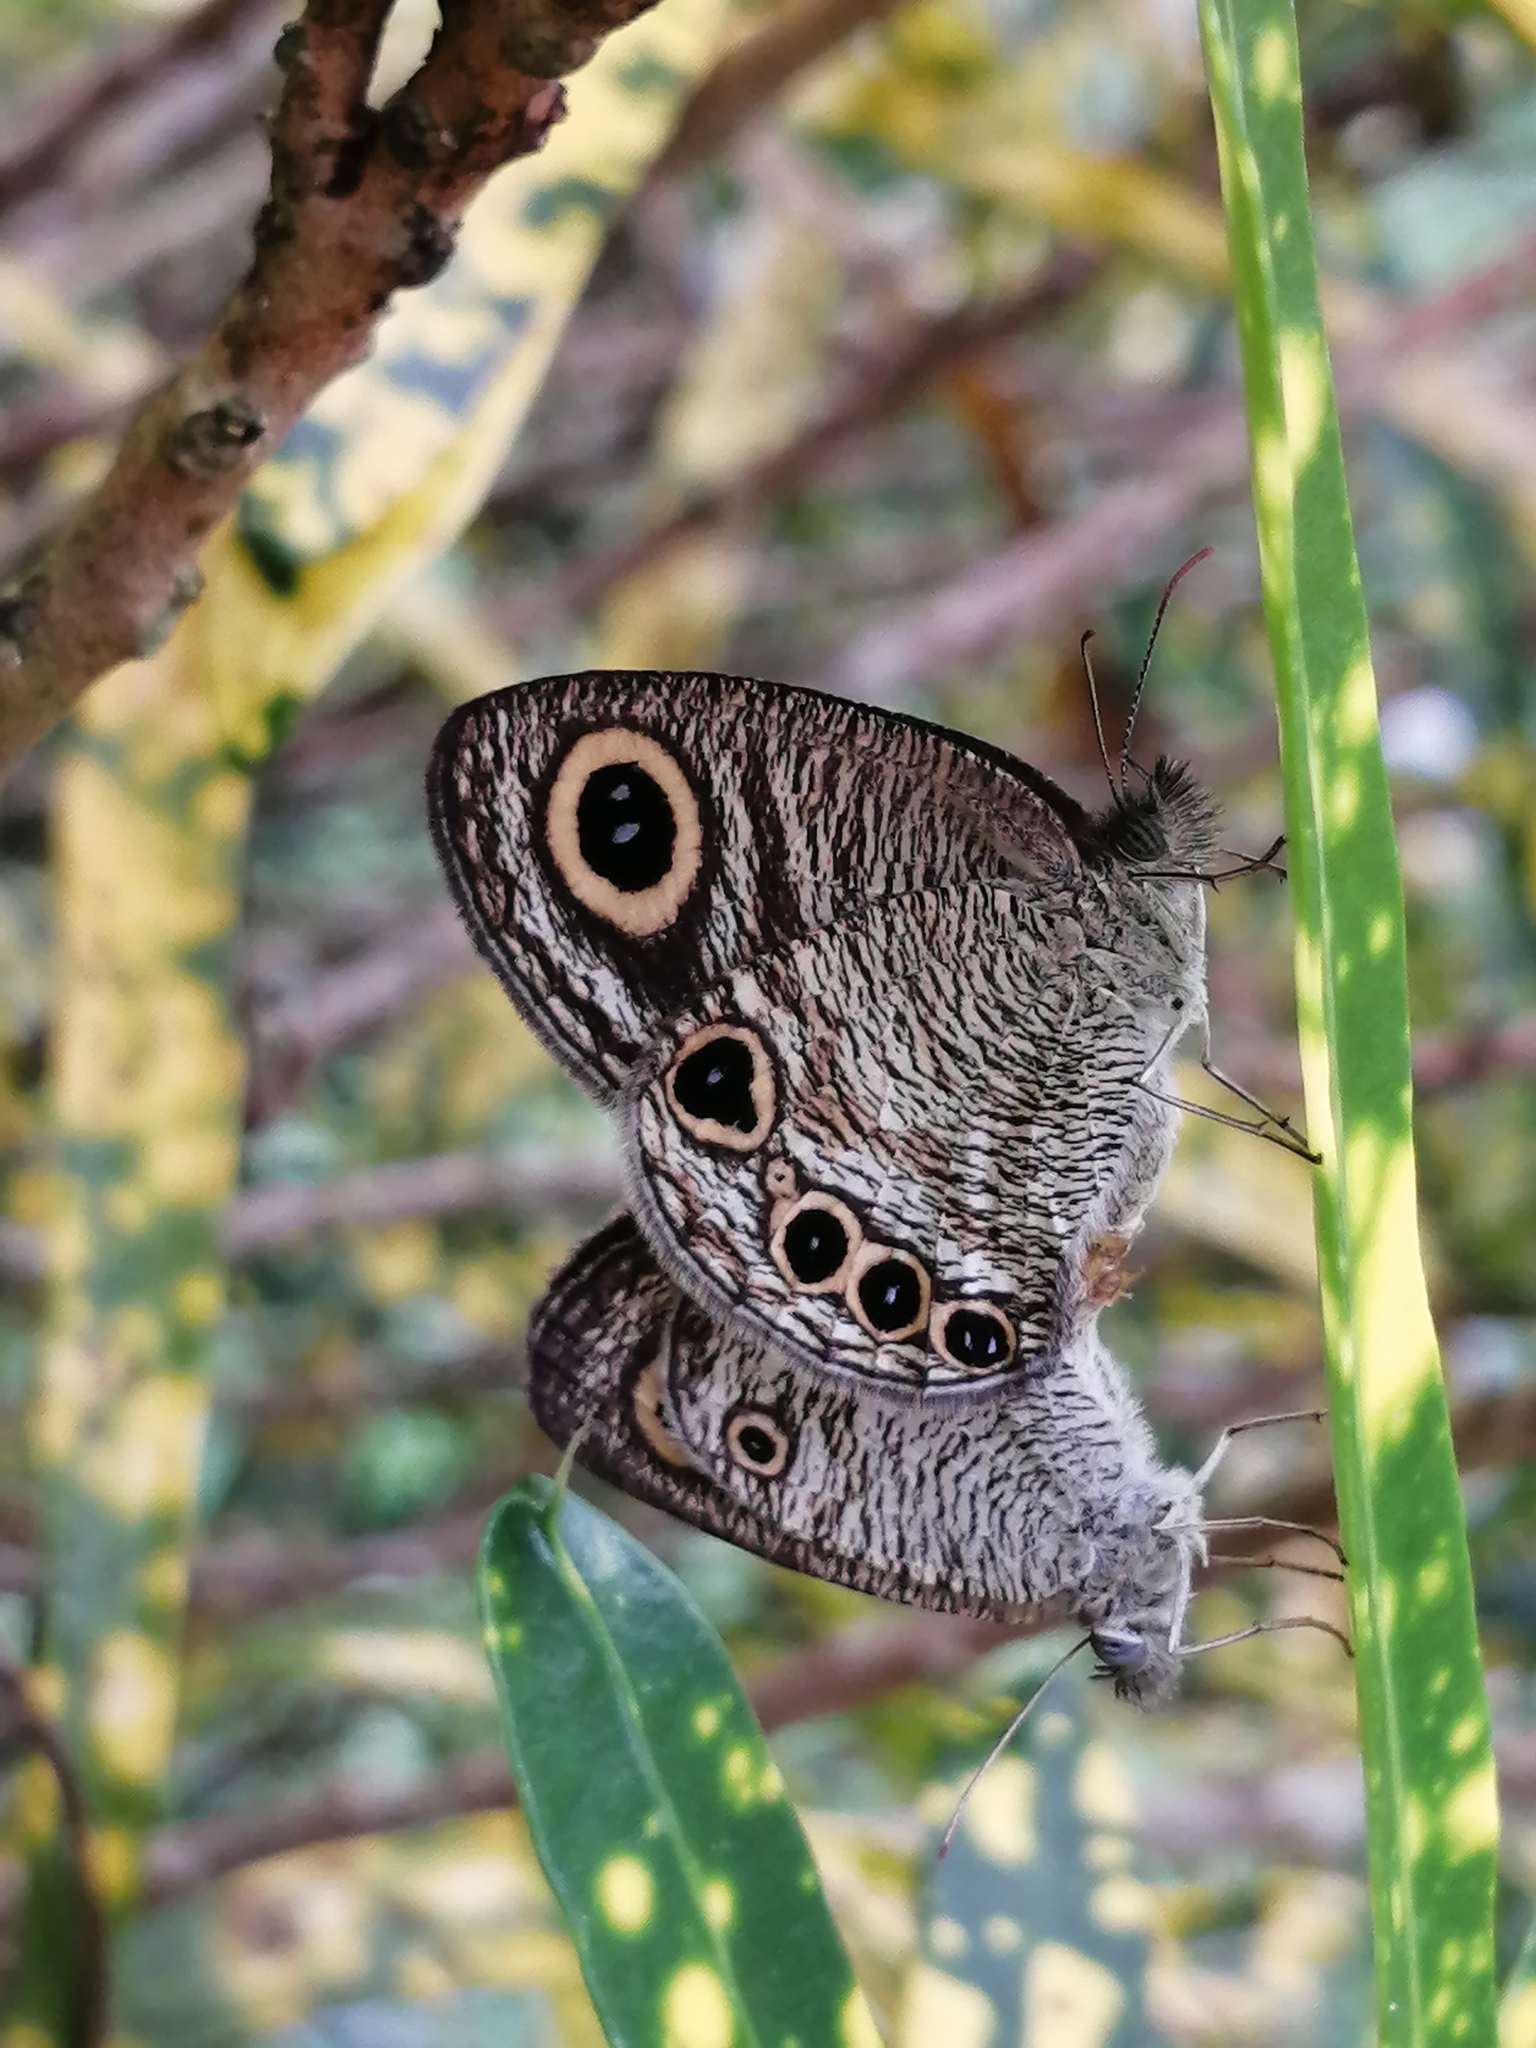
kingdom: Animalia
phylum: Arthropoda
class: Insecta
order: Lepidoptera
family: Nymphalidae
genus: Ypthima
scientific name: Ypthima huebneri
